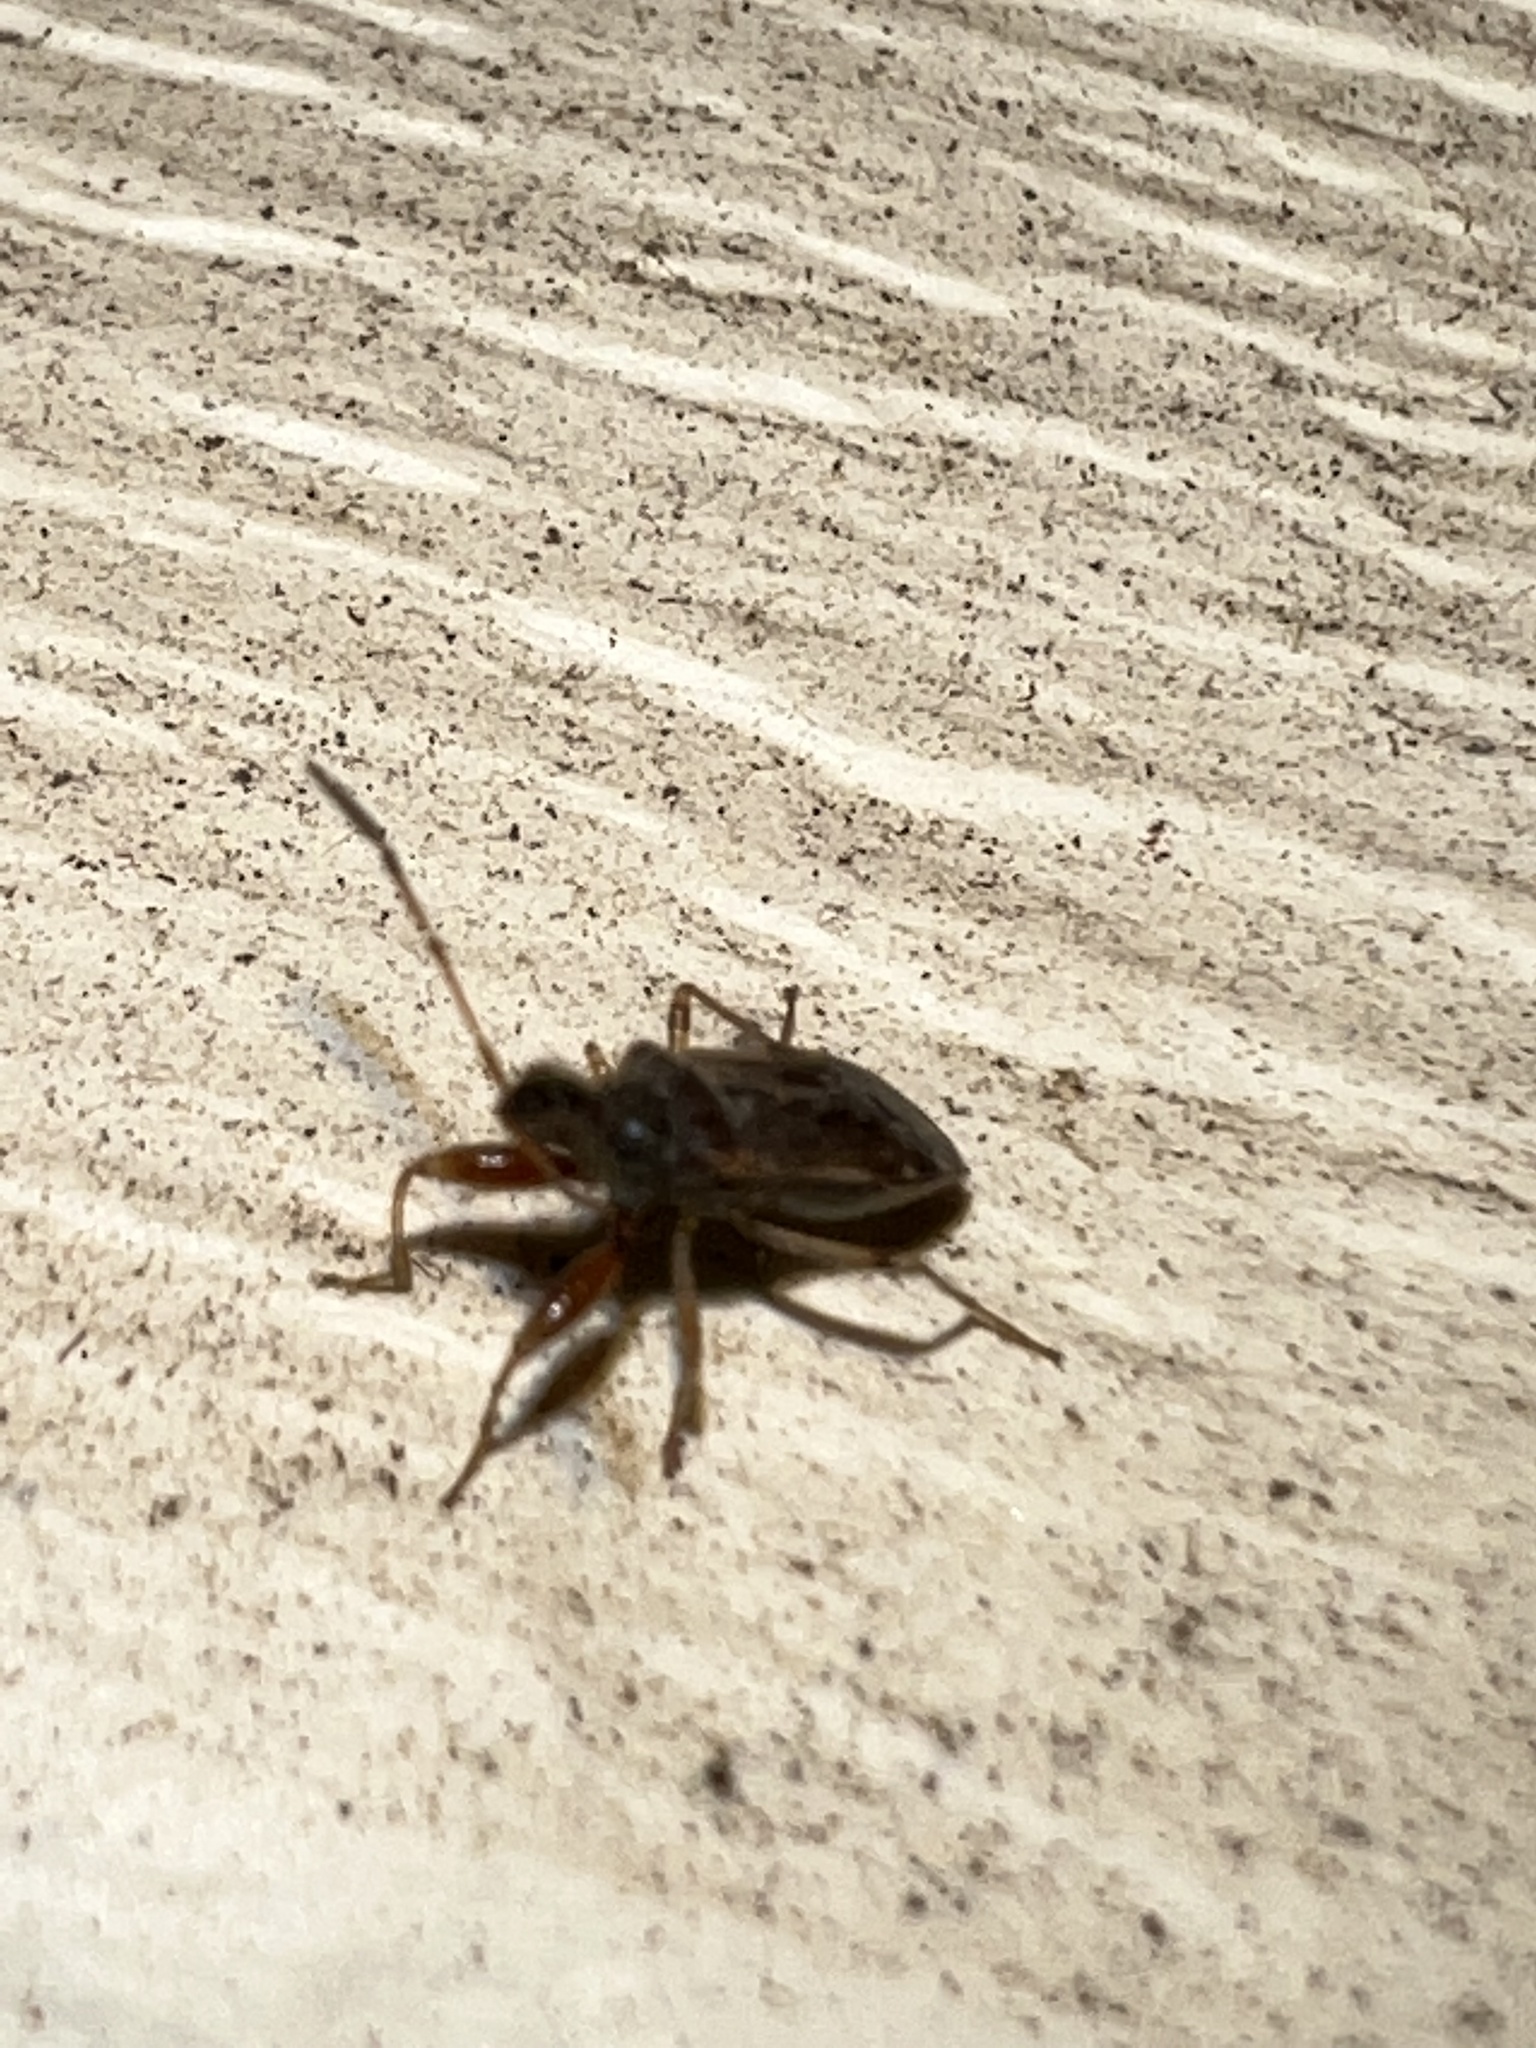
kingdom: Animalia
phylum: Arthropoda
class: Insecta
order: Hemiptera
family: Rhyparochromidae
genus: Heraeus
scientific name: Heraeus plebejus
